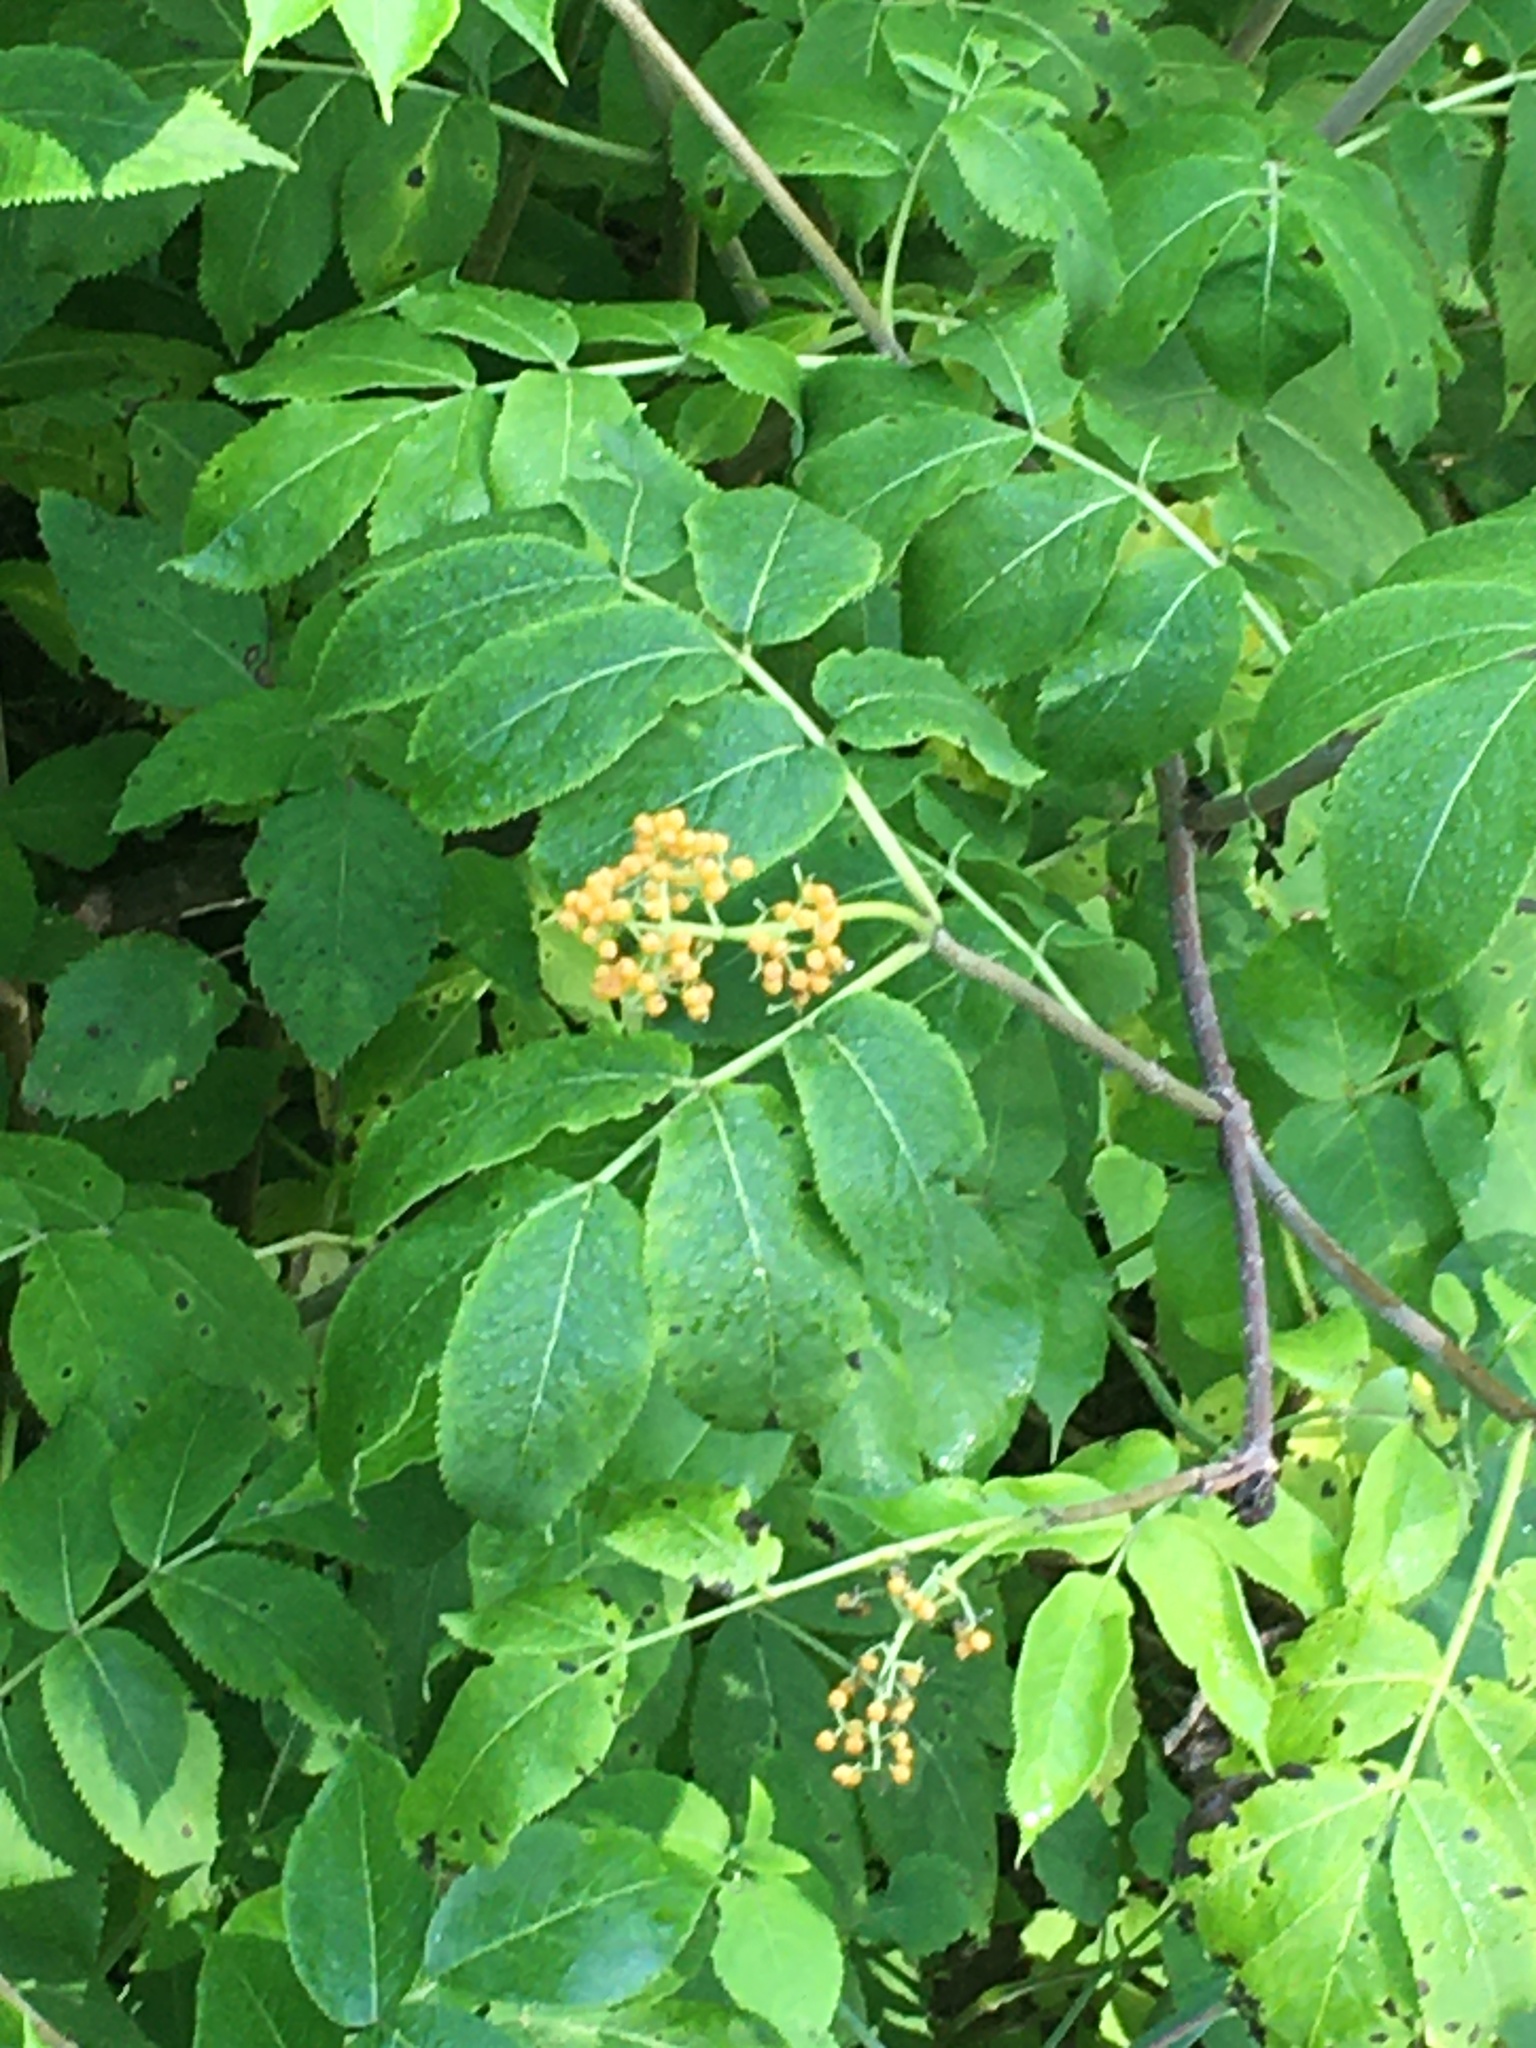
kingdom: Plantae
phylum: Tracheophyta
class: Magnoliopsida
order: Dipsacales
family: Viburnaceae
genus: Sambucus
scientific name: Sambucus racemosa
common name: Red-berried elder
